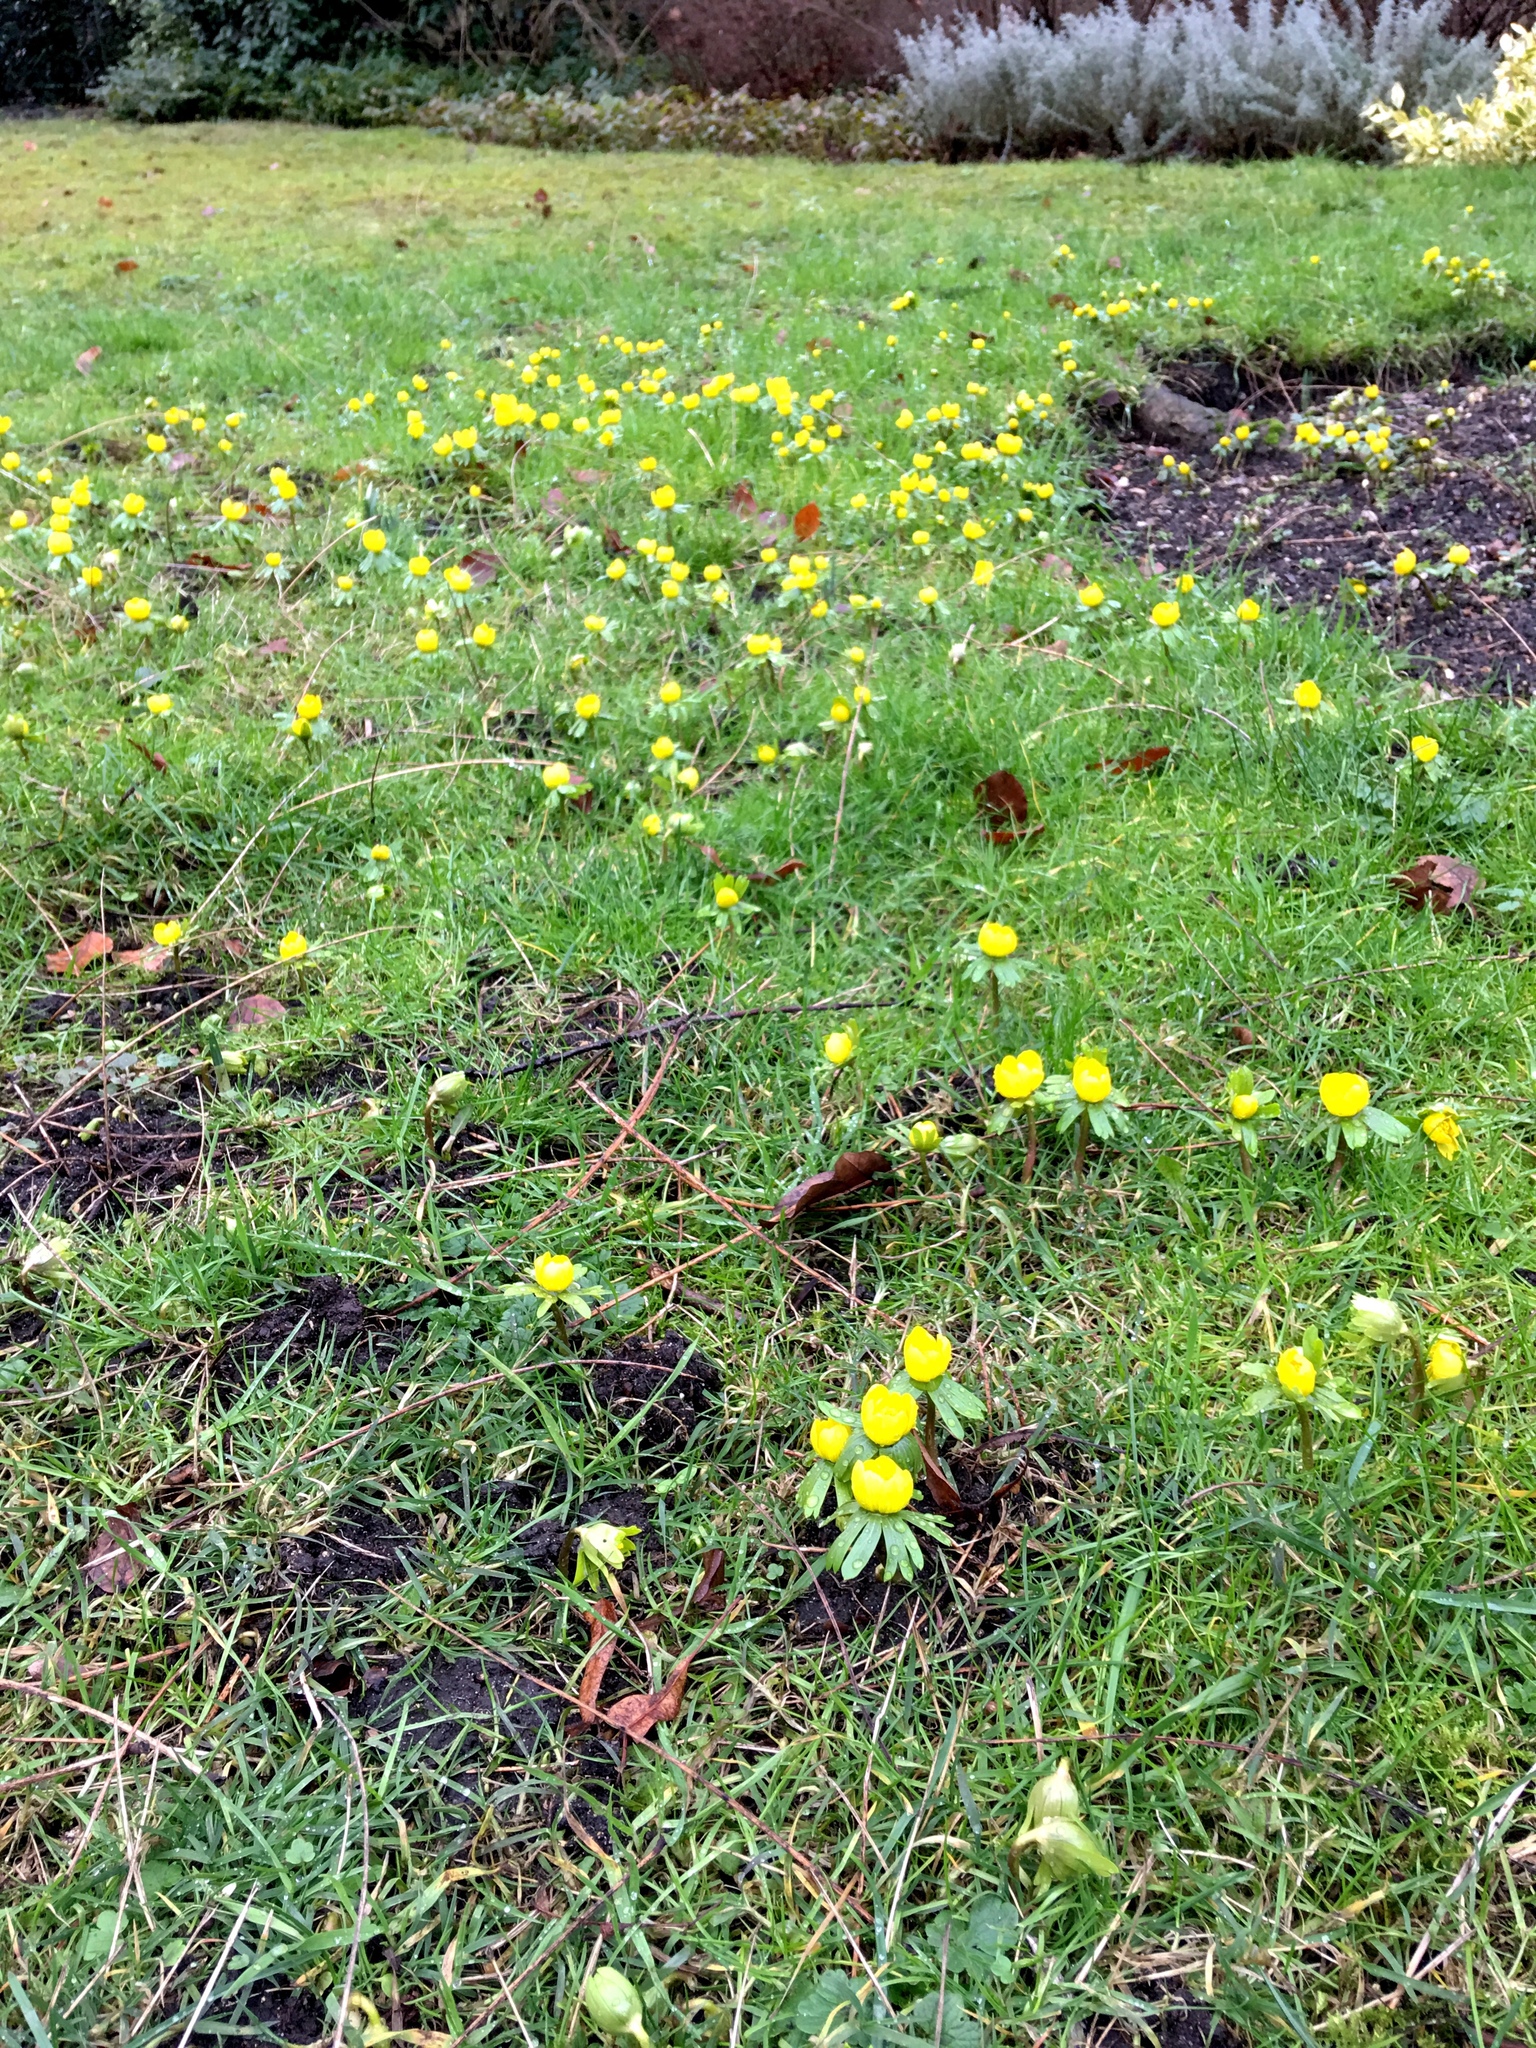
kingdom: Plantae
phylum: Tracheophyta
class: Magnoliopsida
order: Ranunculales
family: Ranunculaceae
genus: Eranthis
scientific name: Eranthis hyemalis
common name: Winter aconite
